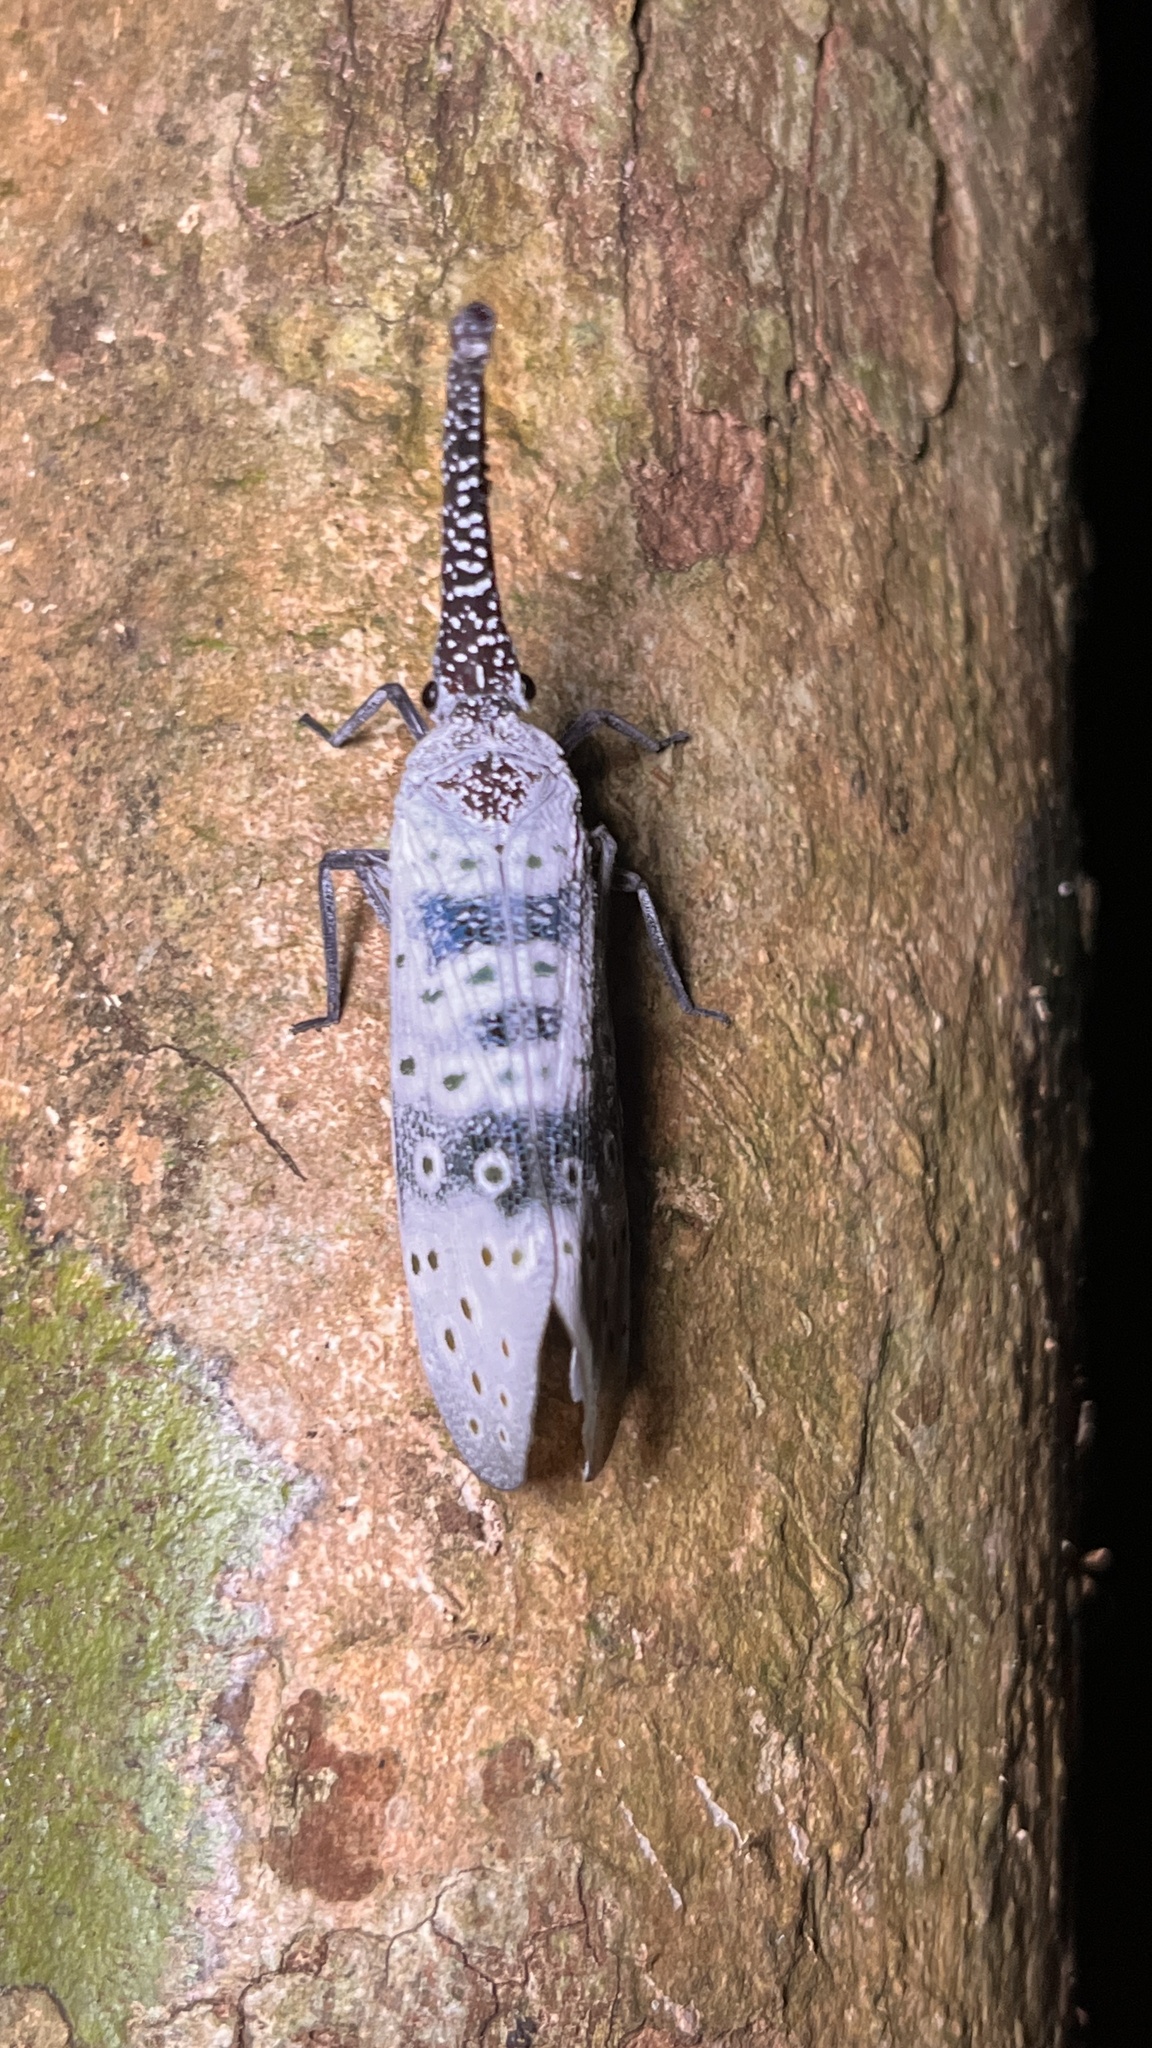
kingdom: Animalia
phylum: Arthropoda
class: Insecta
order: Hemiptera
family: Fulgoridae
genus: Pyrops
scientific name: Pyrops coelestinus
